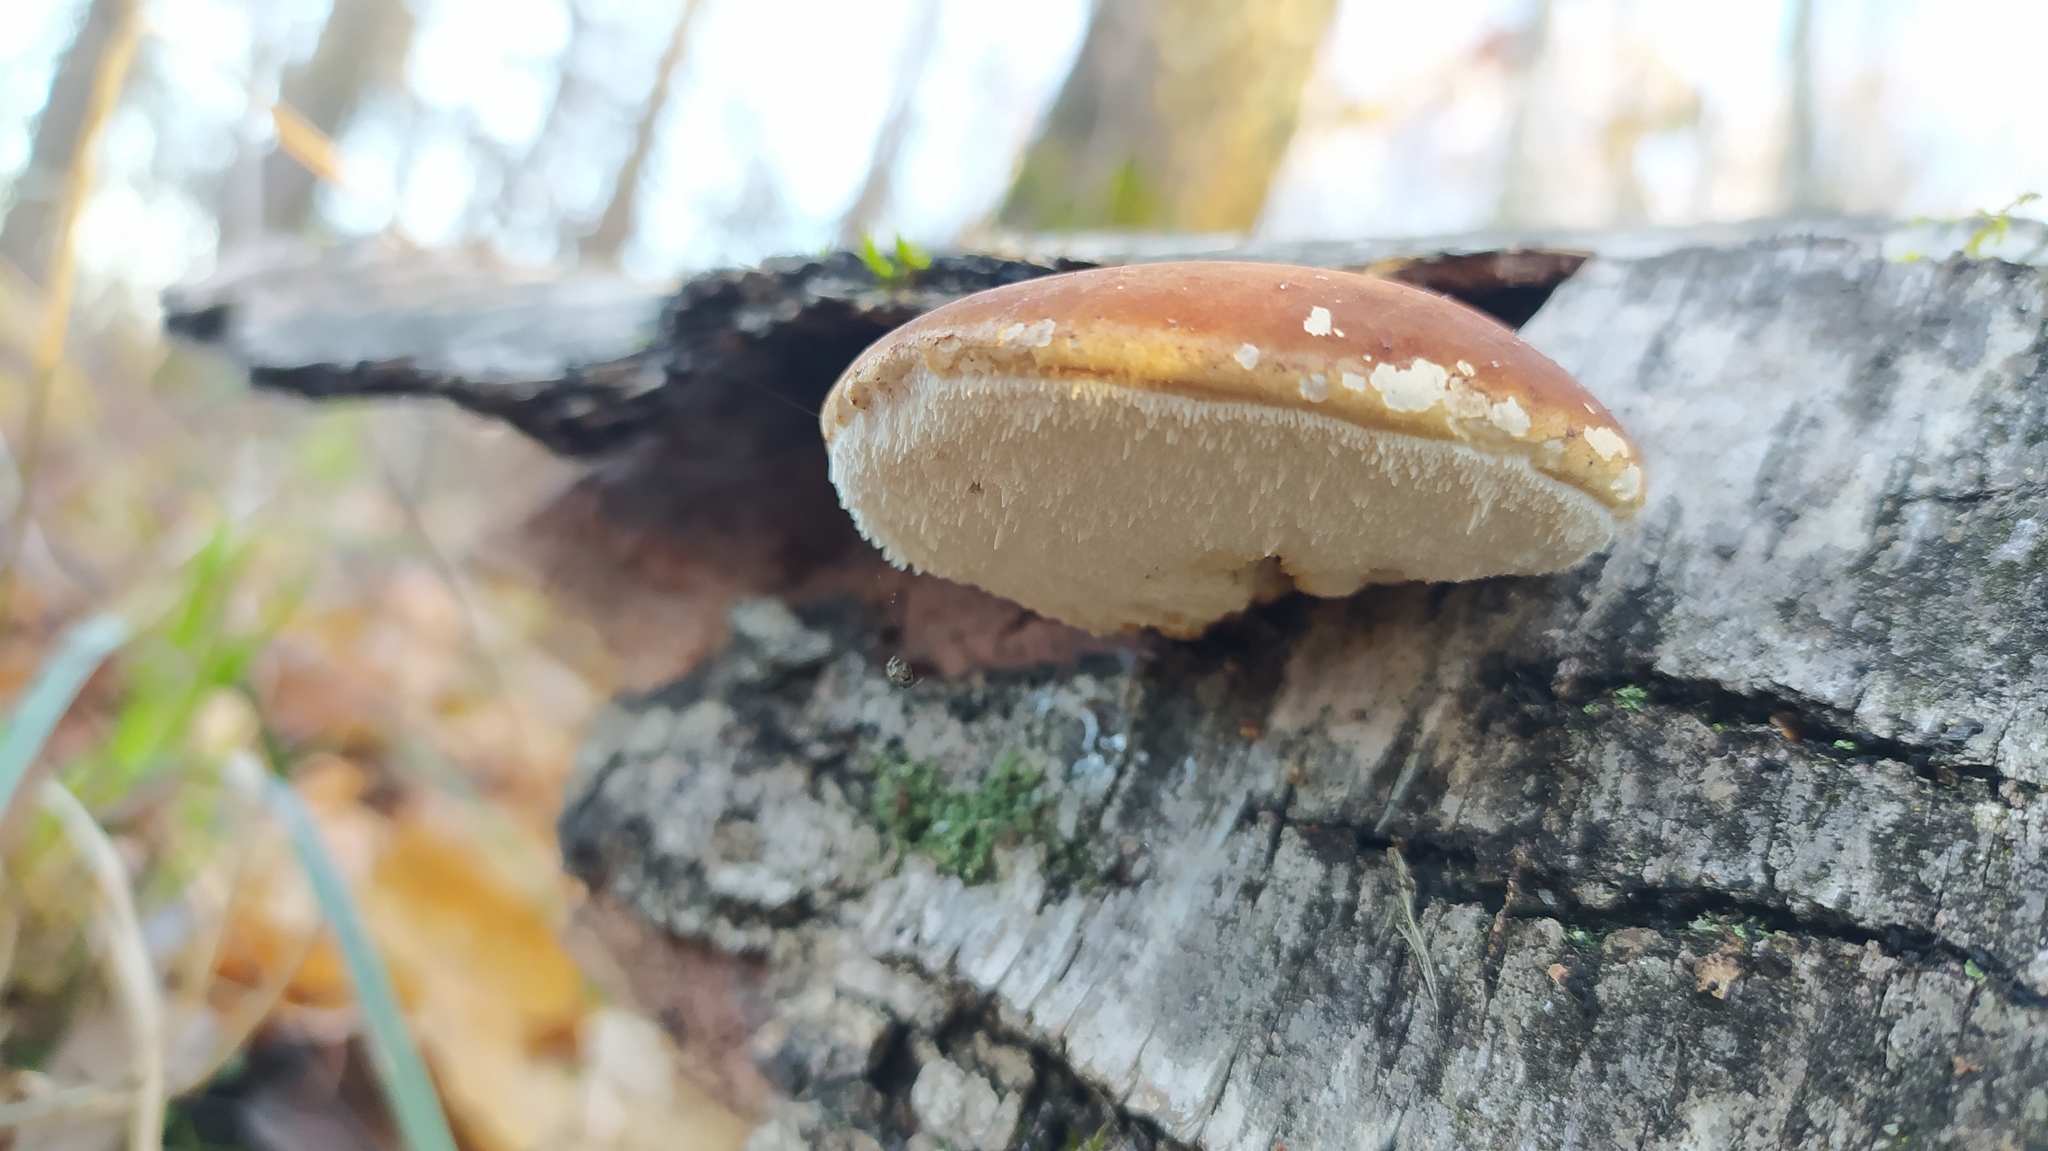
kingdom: Fungi
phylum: Basidiomycota
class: Agaricomycetes
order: Polyporales
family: Fomitopsidaceae
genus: Fomitopsis
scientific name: Fomitopsis betulina
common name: Birch polypore
